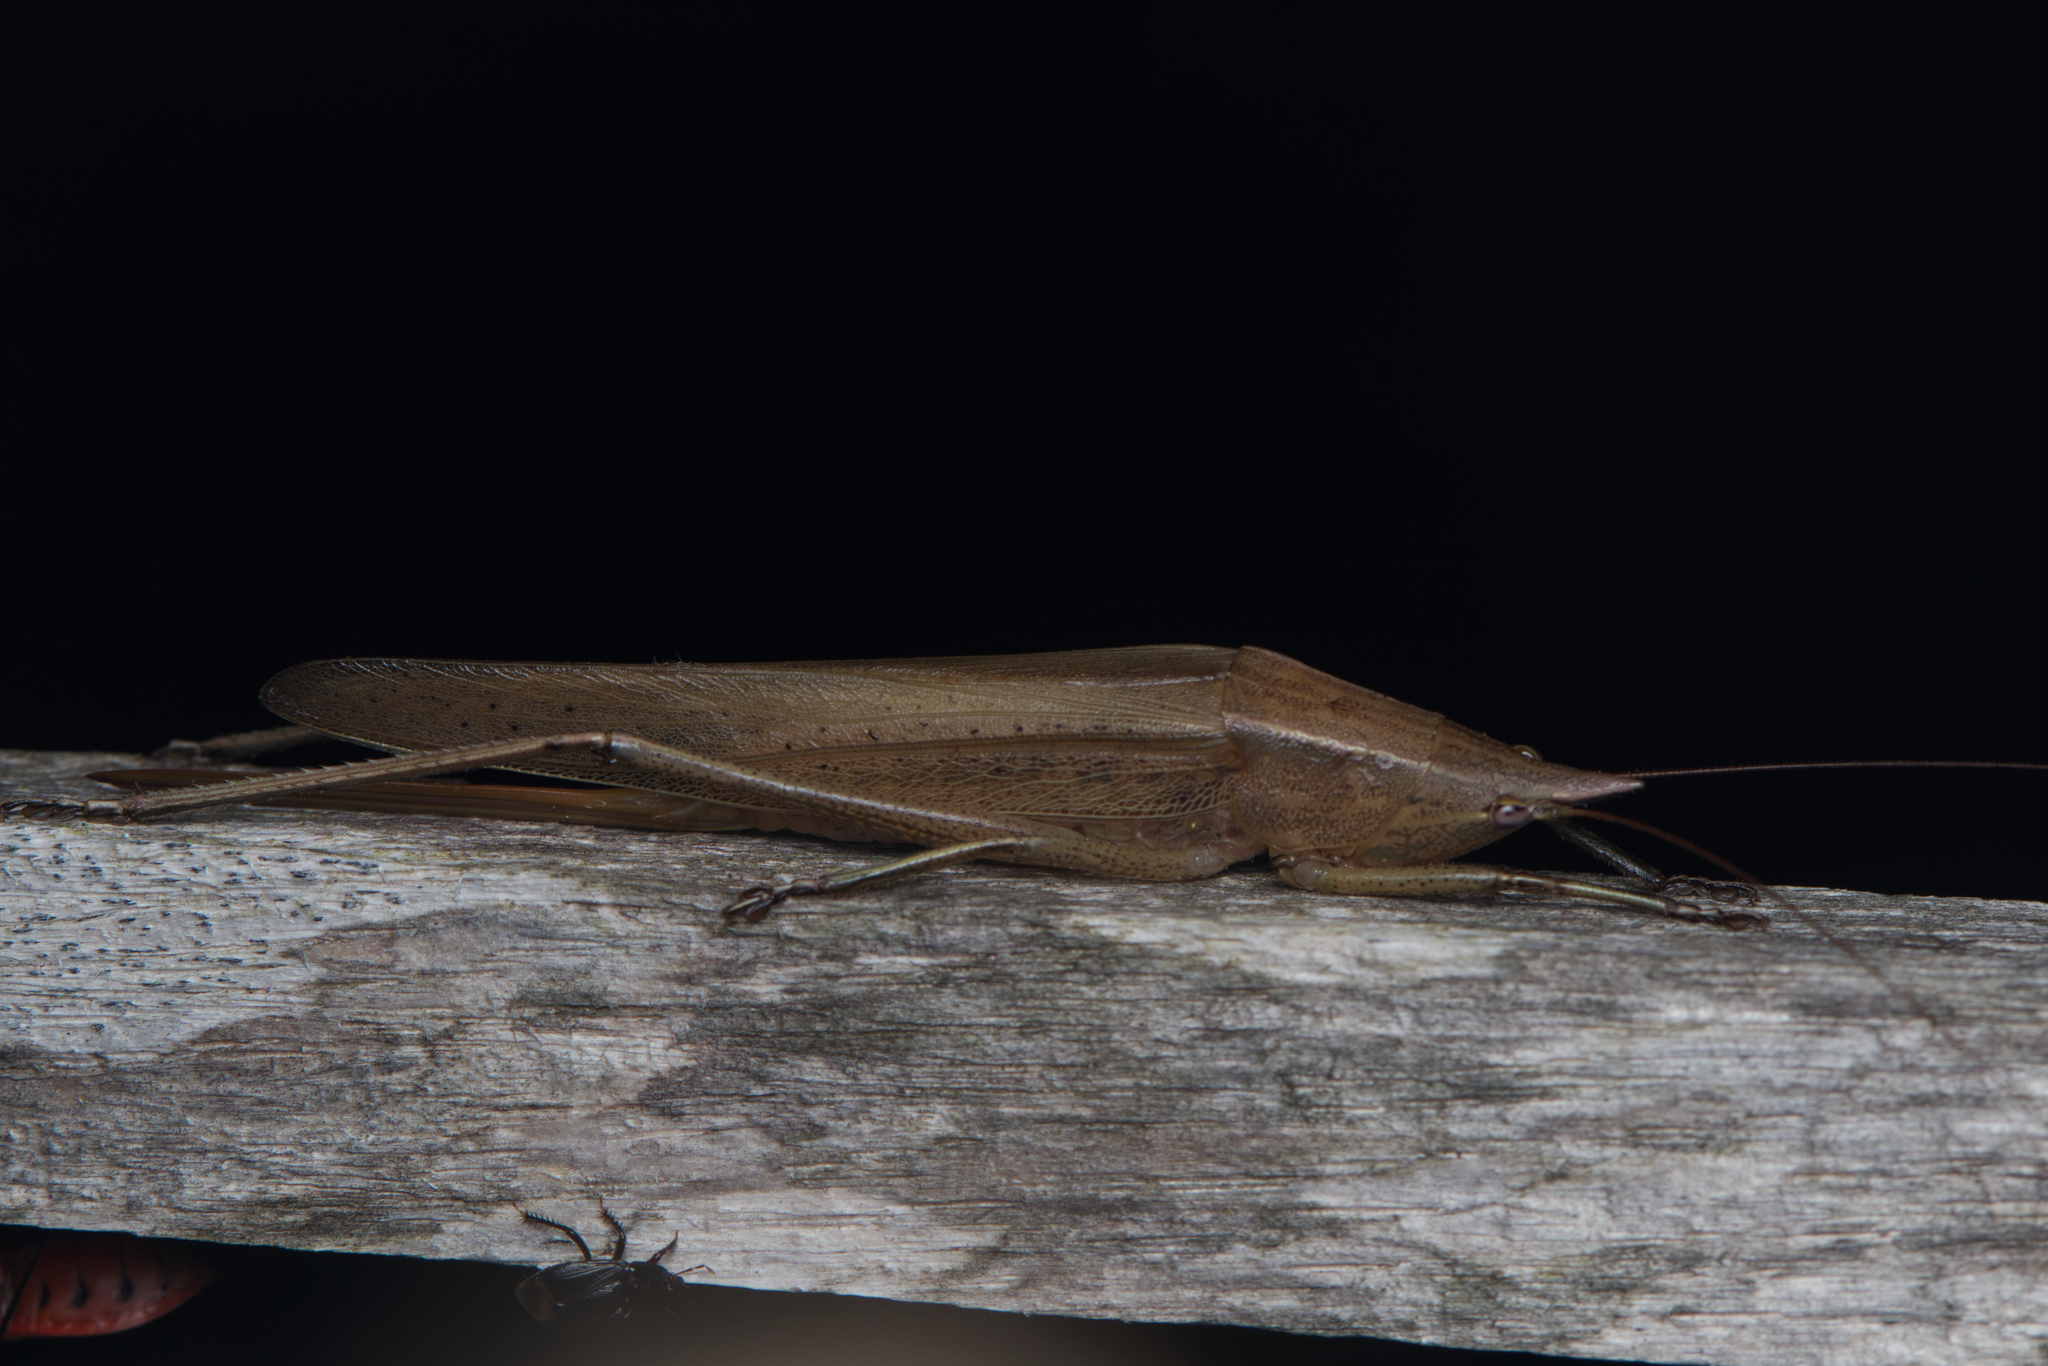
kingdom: Animalia
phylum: Arthropoda
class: Insecta
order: Orthoptera
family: Tettigoniidae
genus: Pseudorhynchus
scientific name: Pseudorhynchus mimeticus
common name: Mimicking snout-nosed katydid
